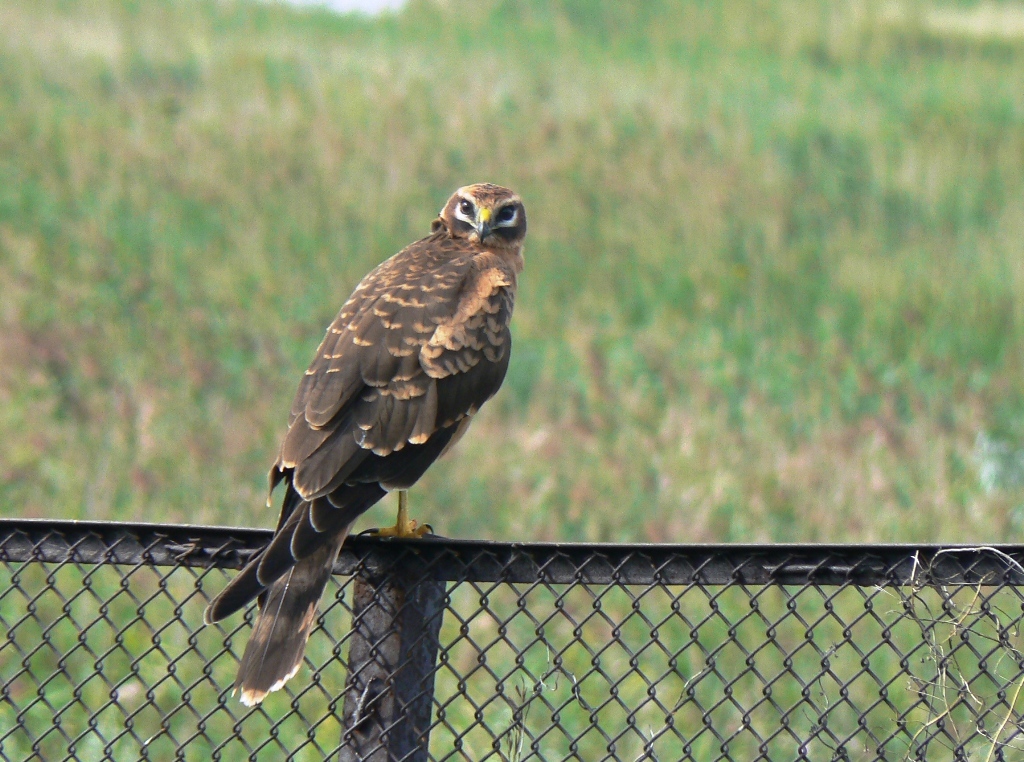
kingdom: Animalia
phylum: Chordata
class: Aves
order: Accipitriformes
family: Accipitridae
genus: Circus
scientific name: Circus macrourus
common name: Pallid harrier
